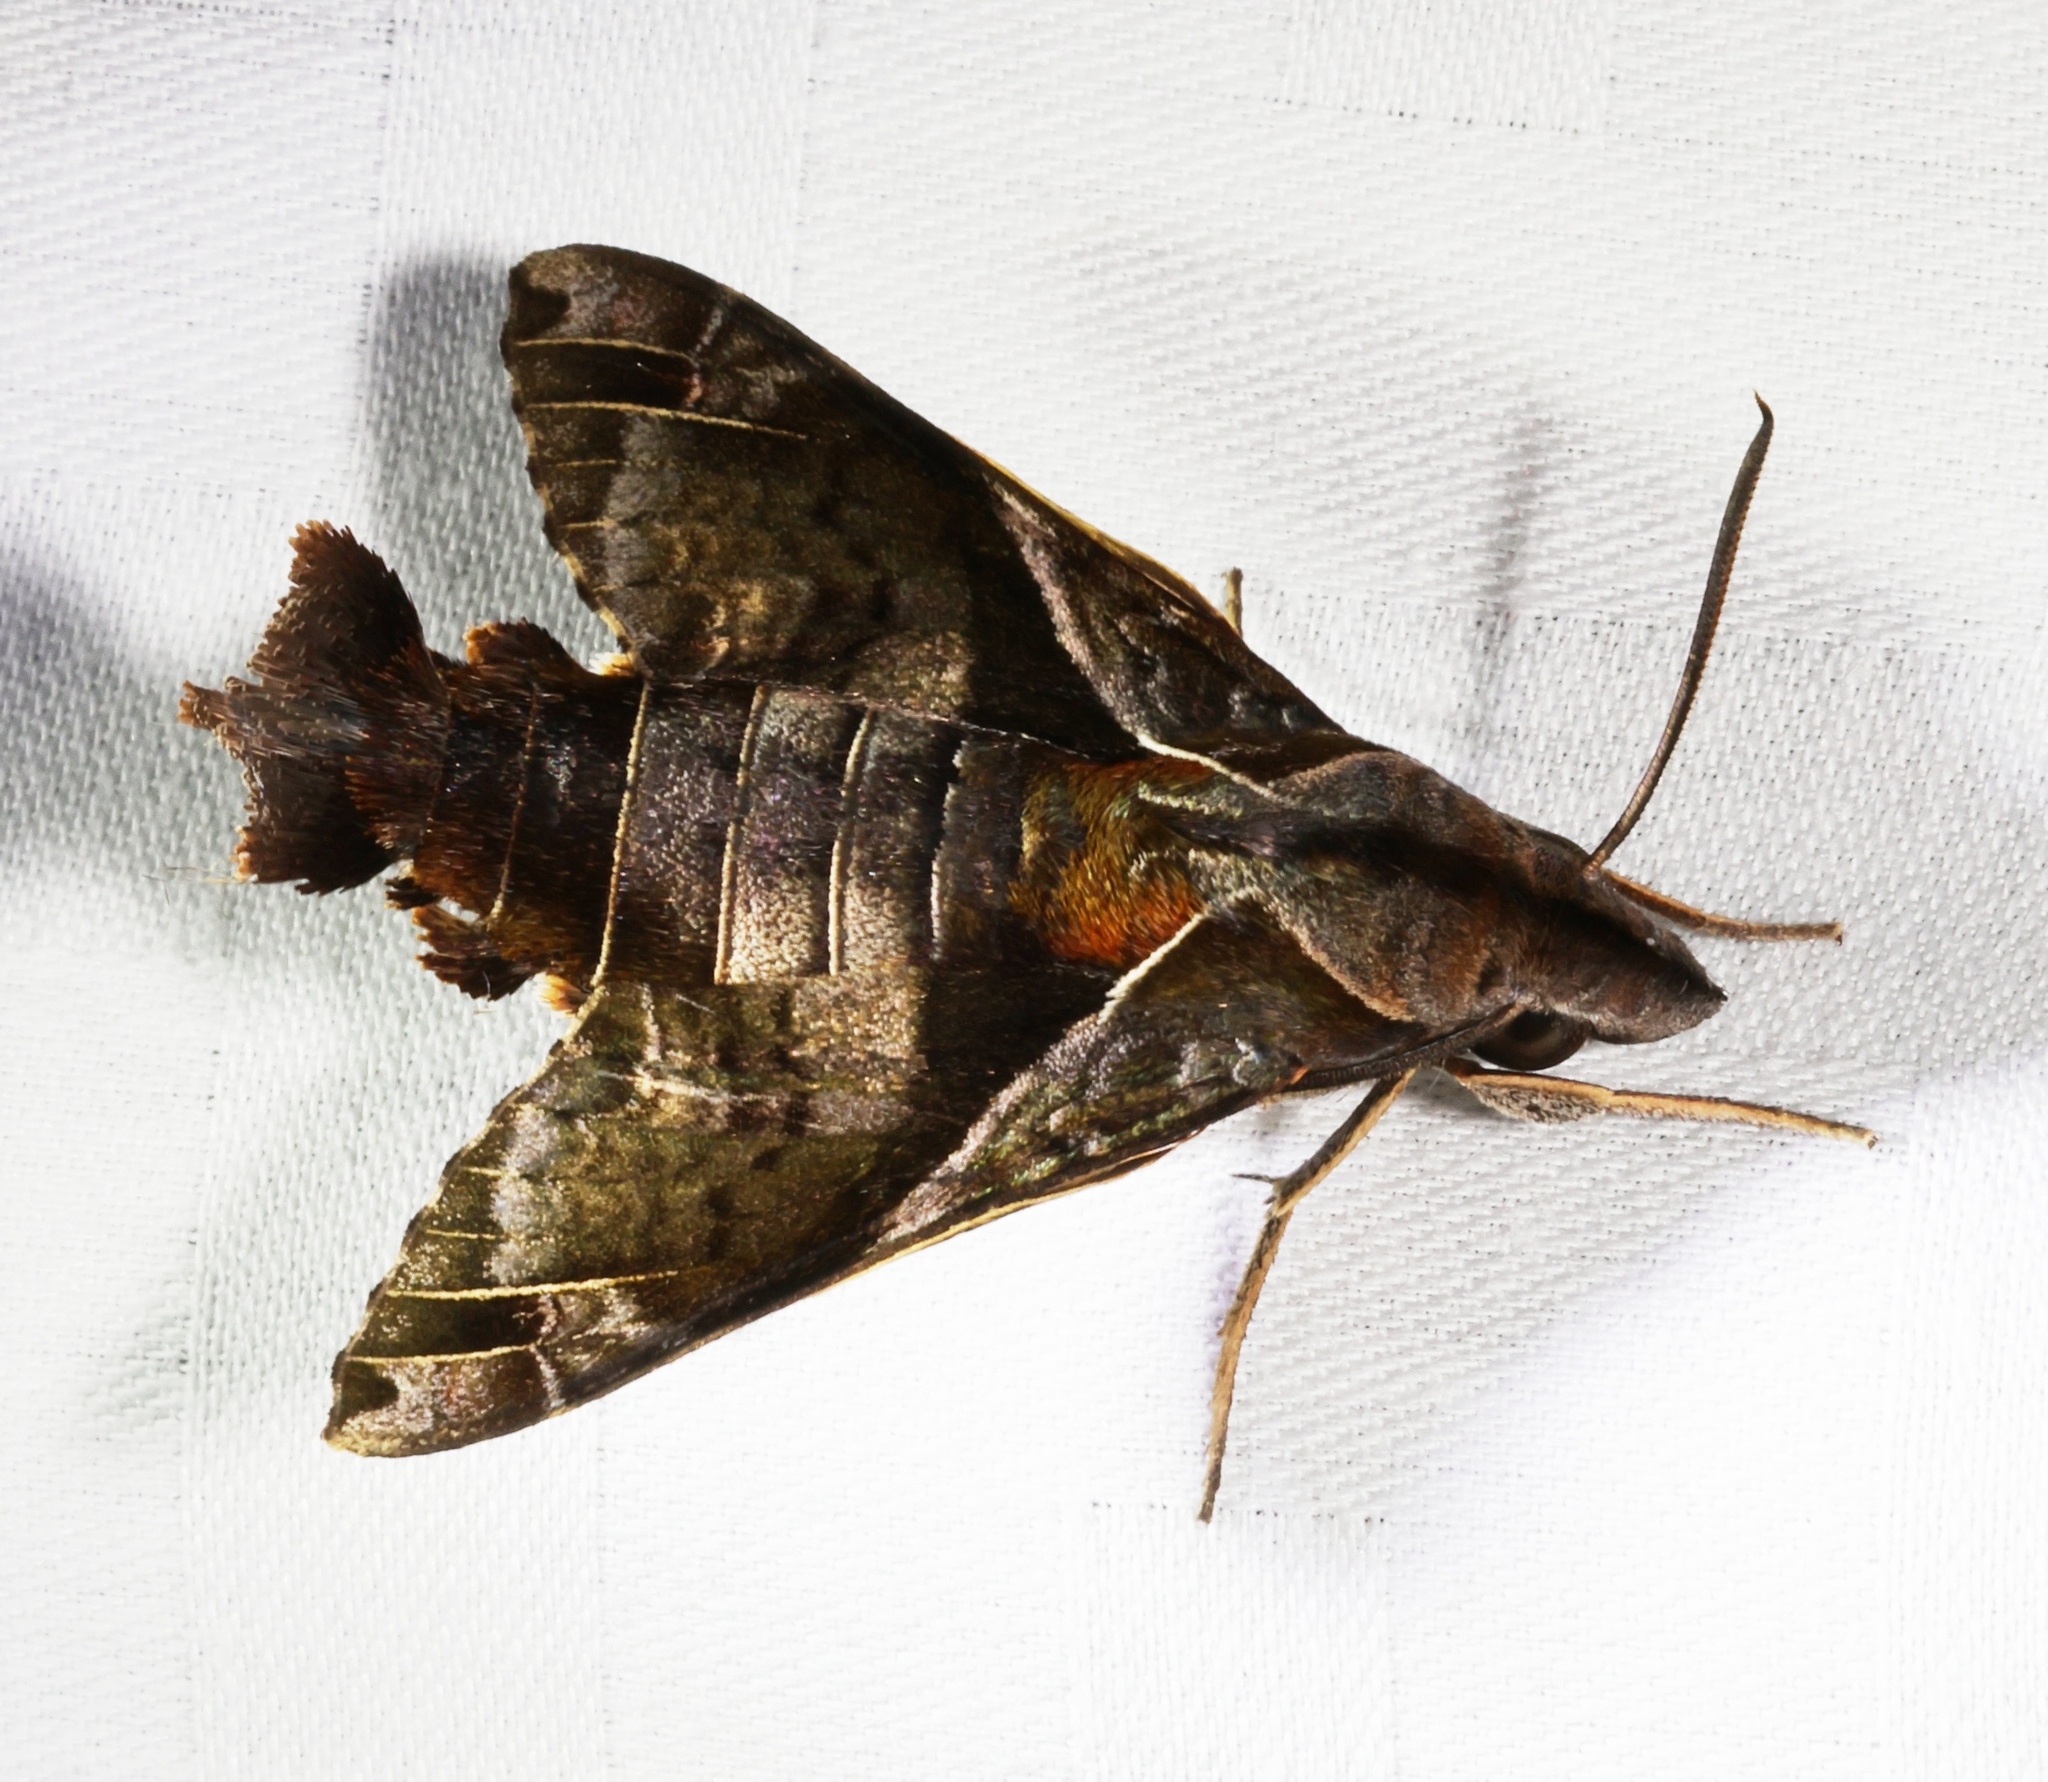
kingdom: Animalia
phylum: Arthropoda
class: Insecta
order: Lepidoptera
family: Sphingidae
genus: Macroglossum
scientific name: Macroglossum fritzei
